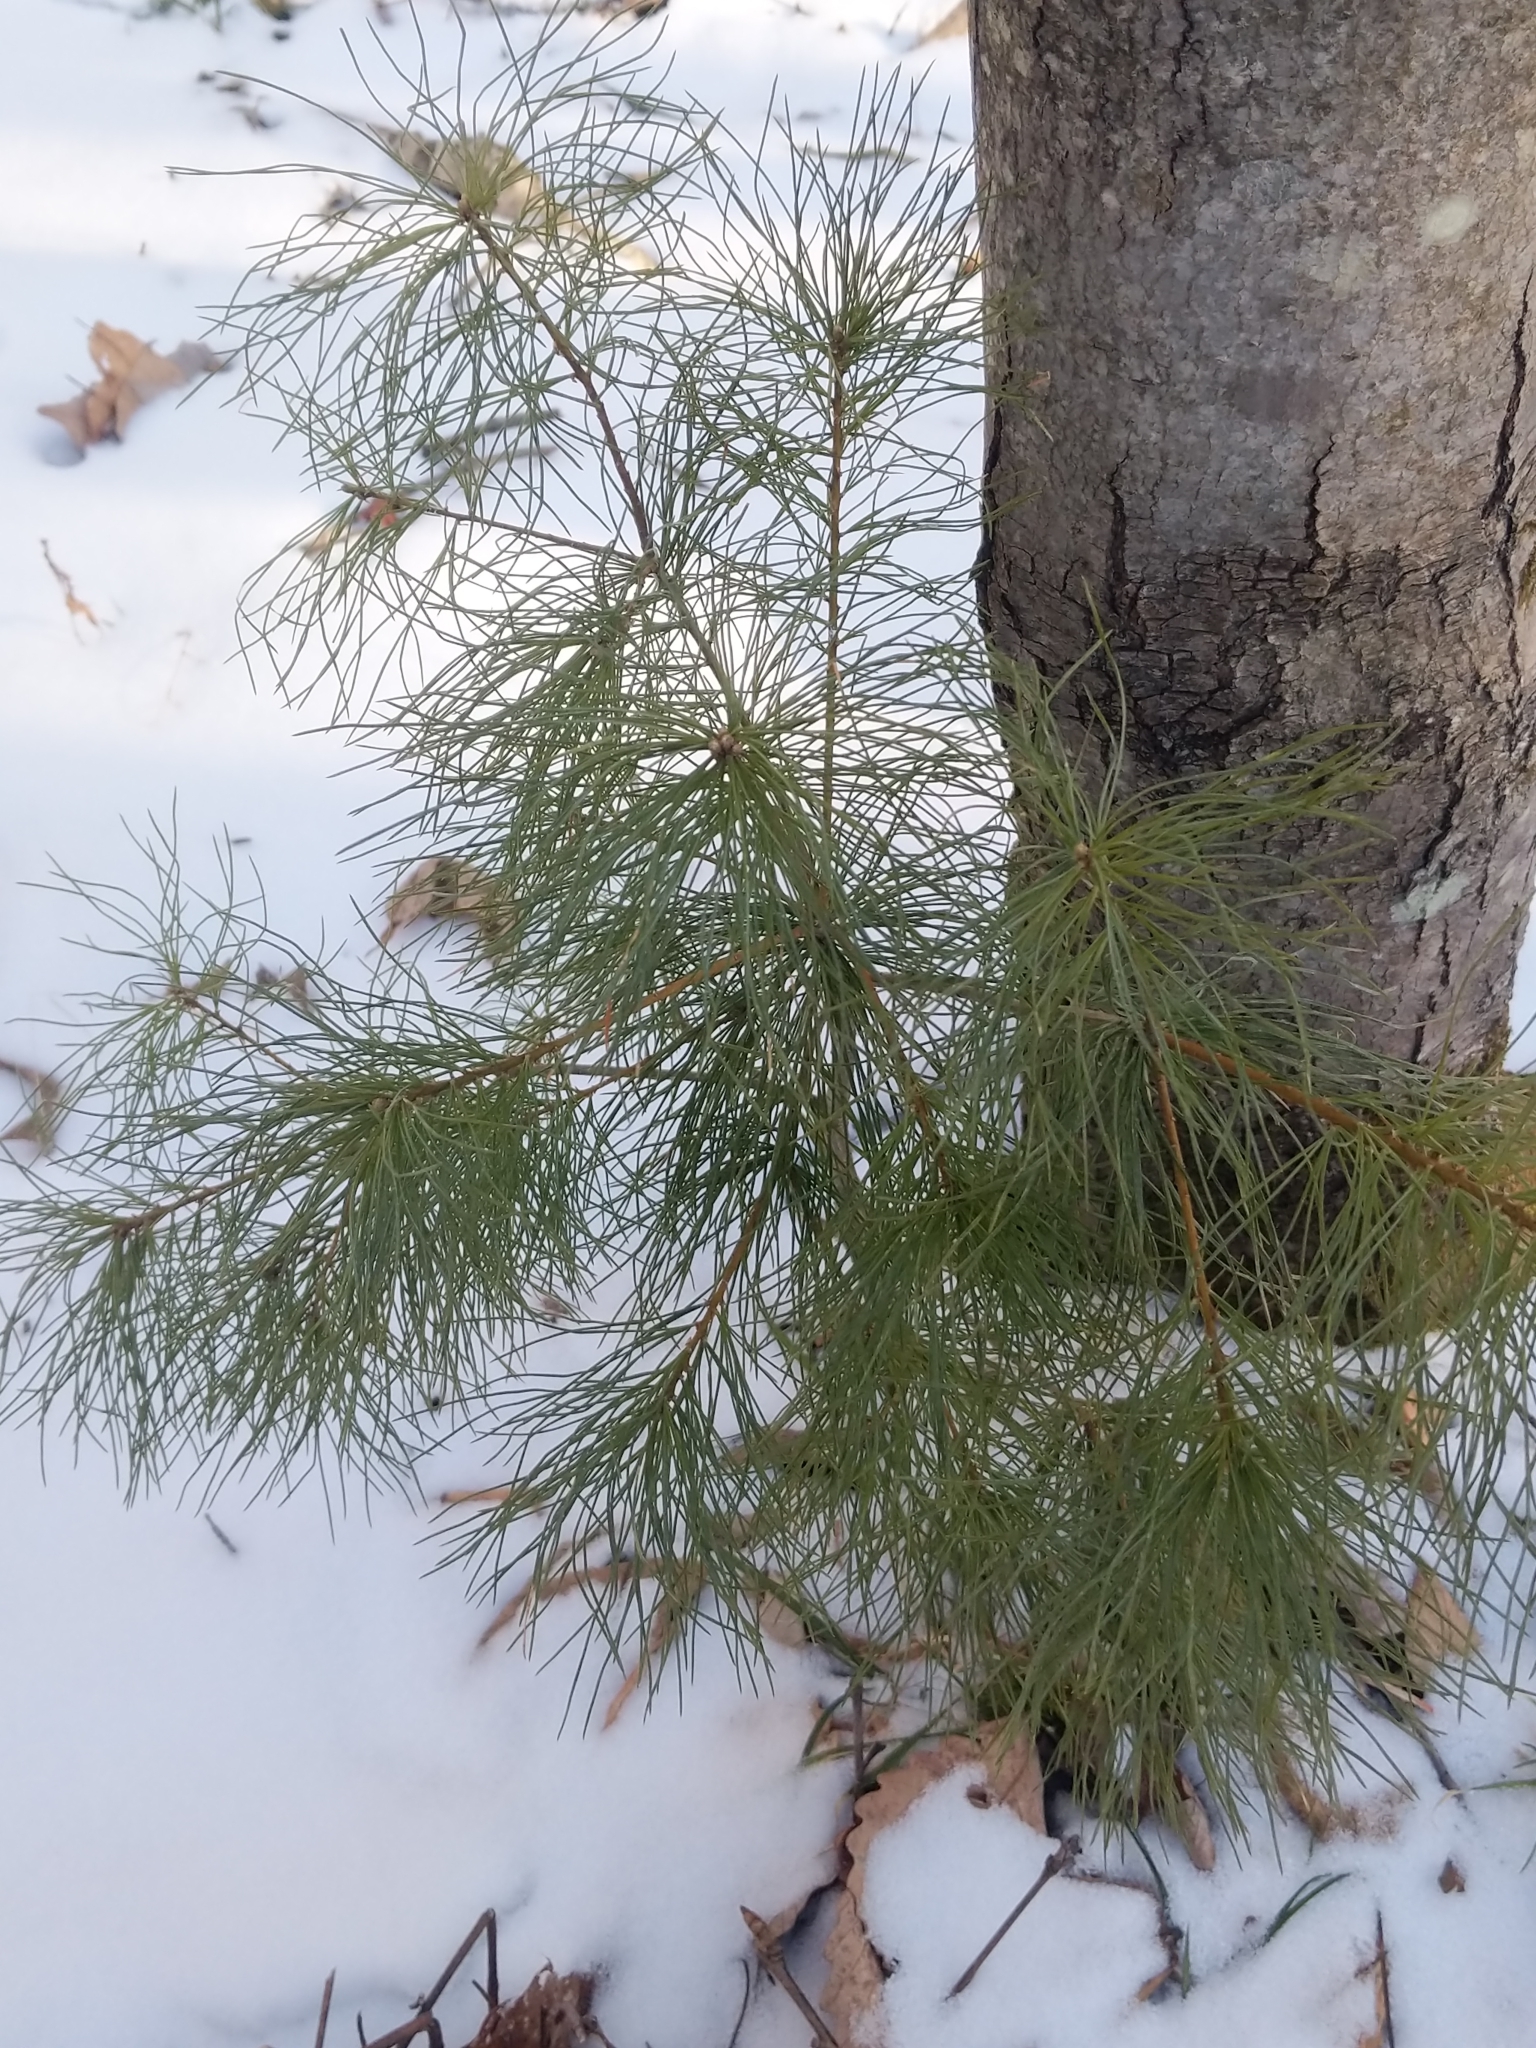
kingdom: Plantae
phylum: Tracheophyta
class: Pinopsida
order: Pinales
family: Pinaceae
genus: Pinus
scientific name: Pinus strobus
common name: Weymouth pine
